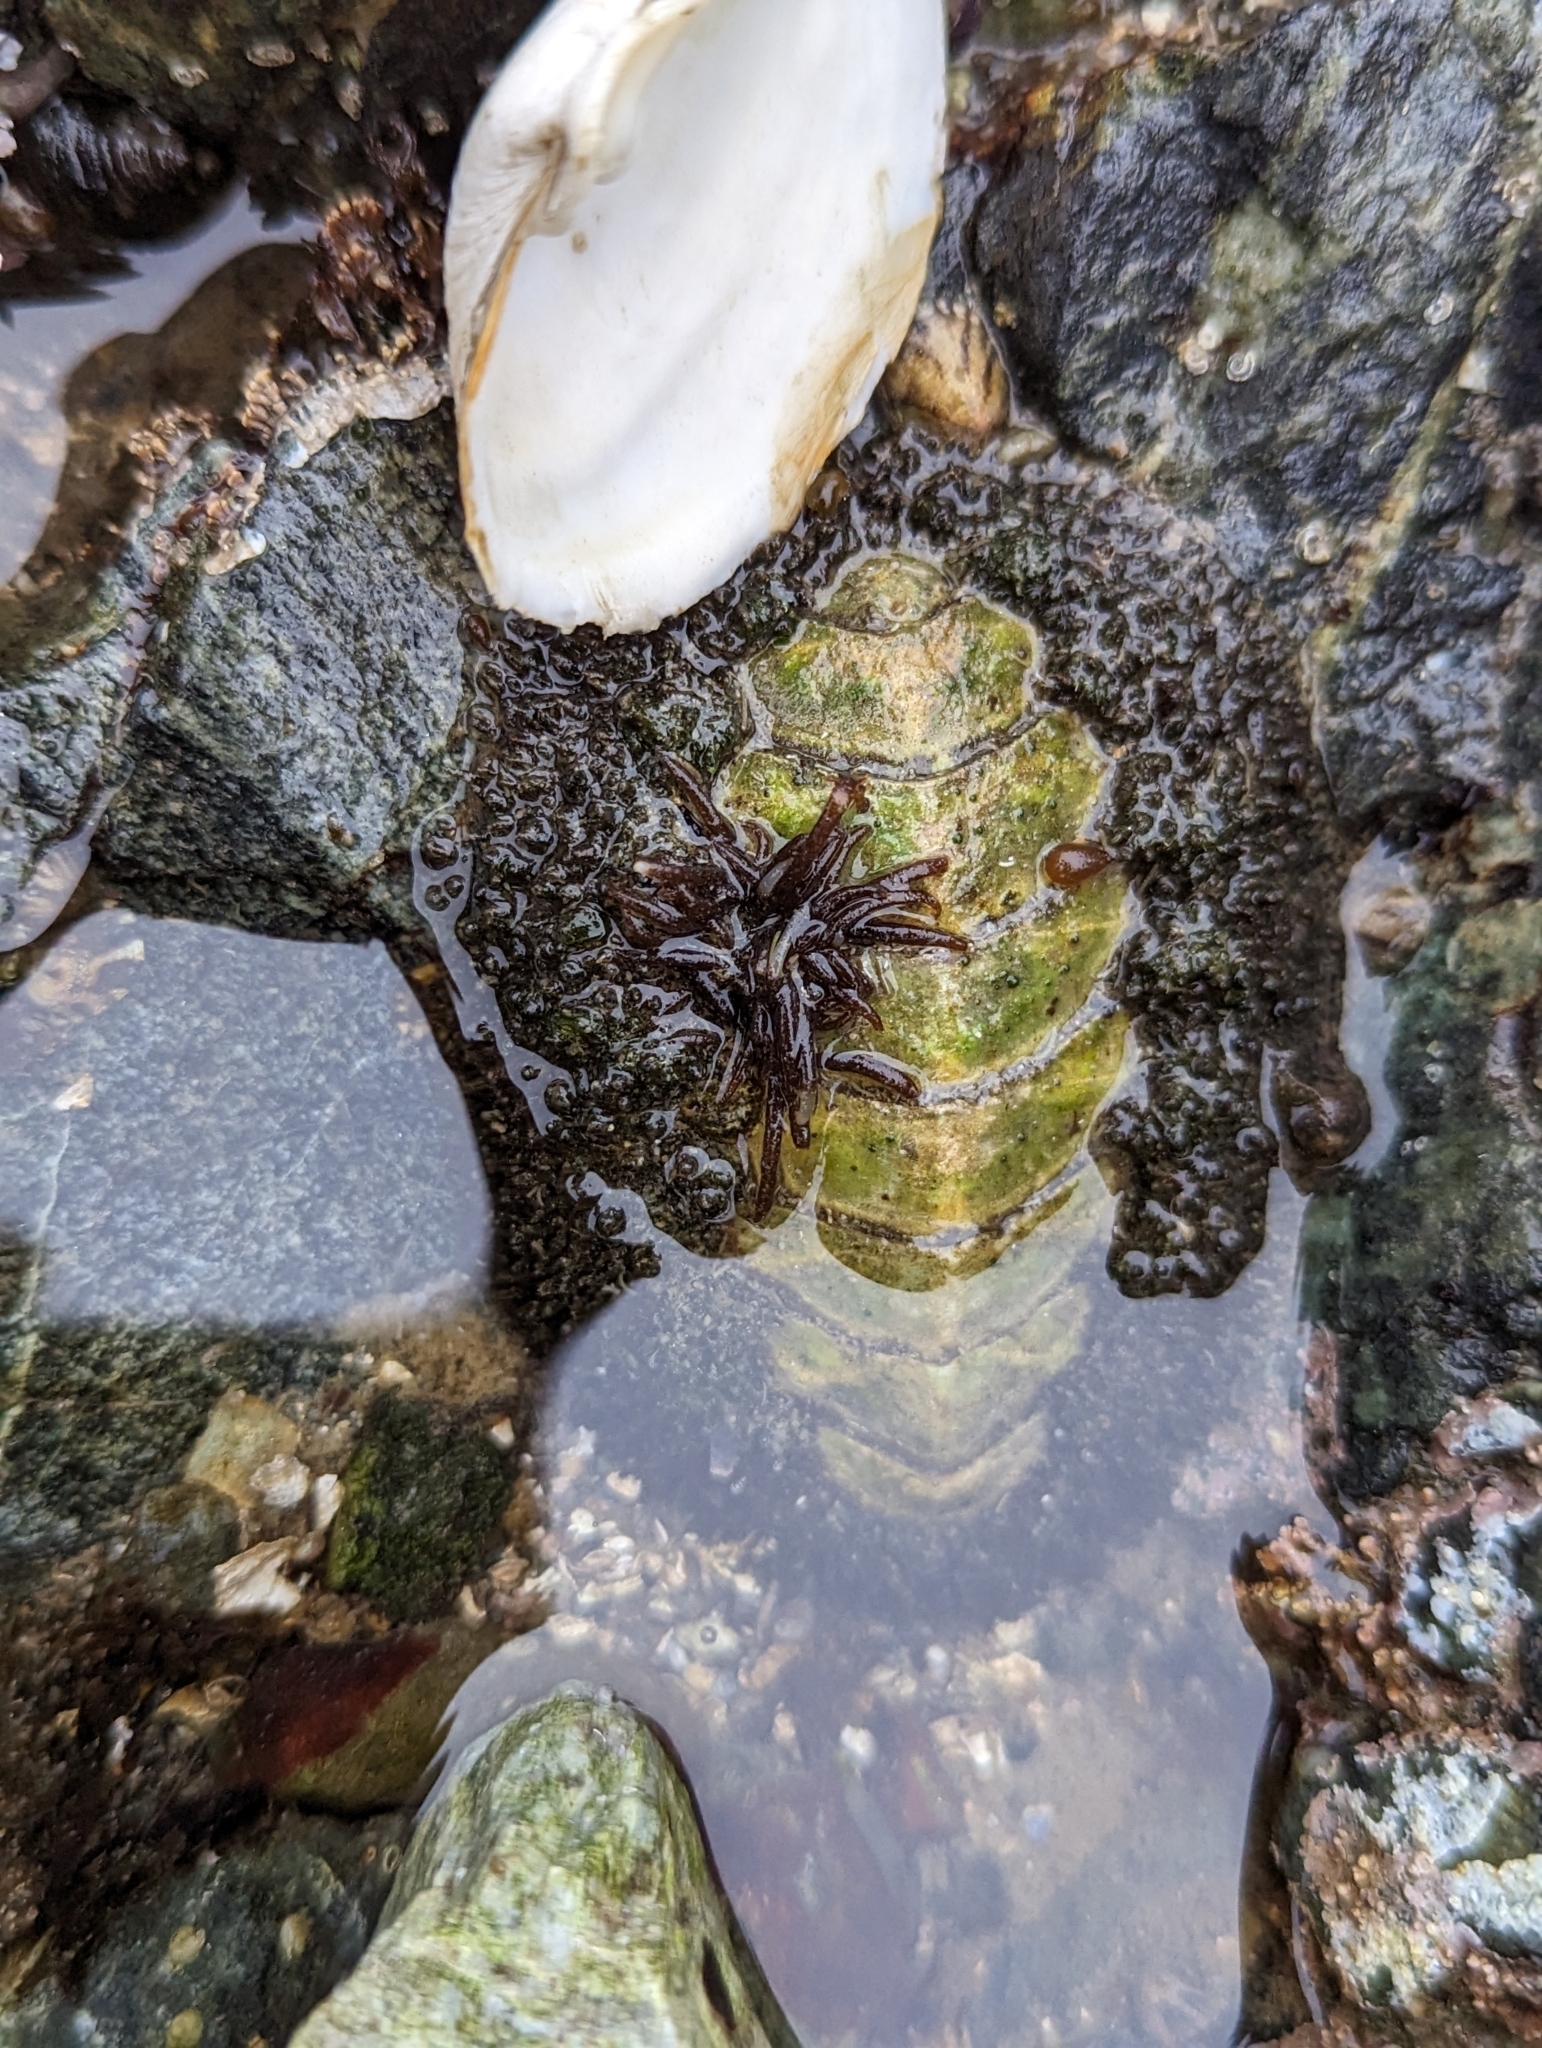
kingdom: Animalia
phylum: Mollusca
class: Polyplacophora
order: Chitonida
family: Mopaliidae
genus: Mopalia
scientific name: Mopalia muscosa
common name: Mossy chiton
